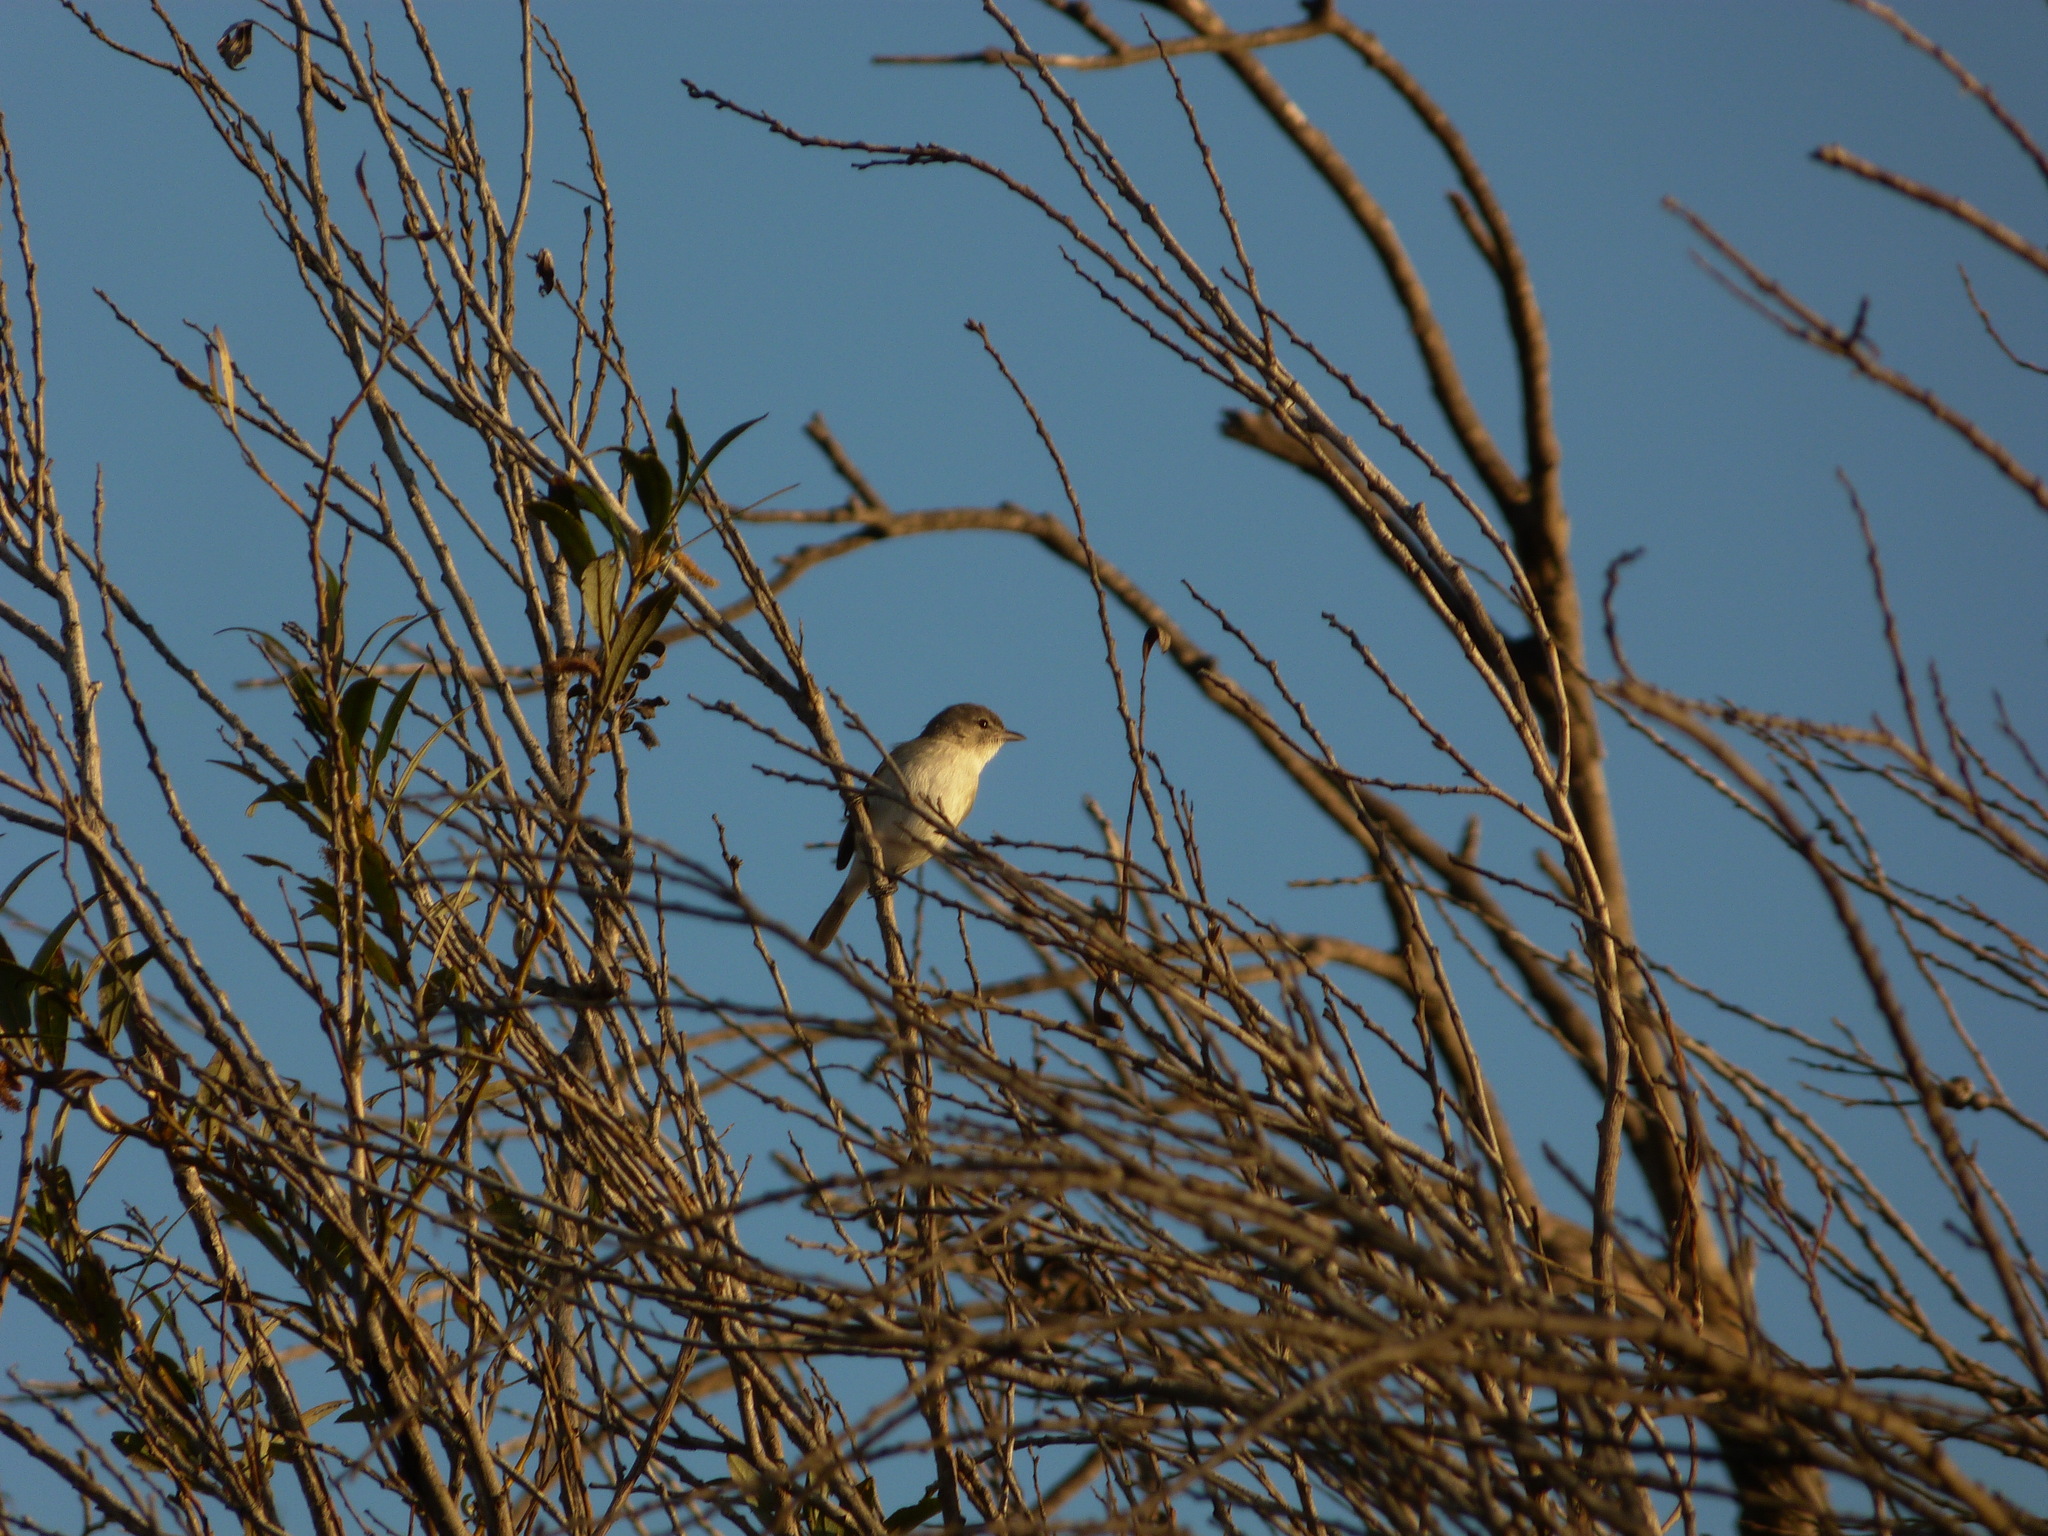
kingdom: Animalia
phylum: Chordata
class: Aves
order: Passeriformes
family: Vireonidae
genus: Vireo
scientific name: Vireo bellii
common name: Bell's vireo
